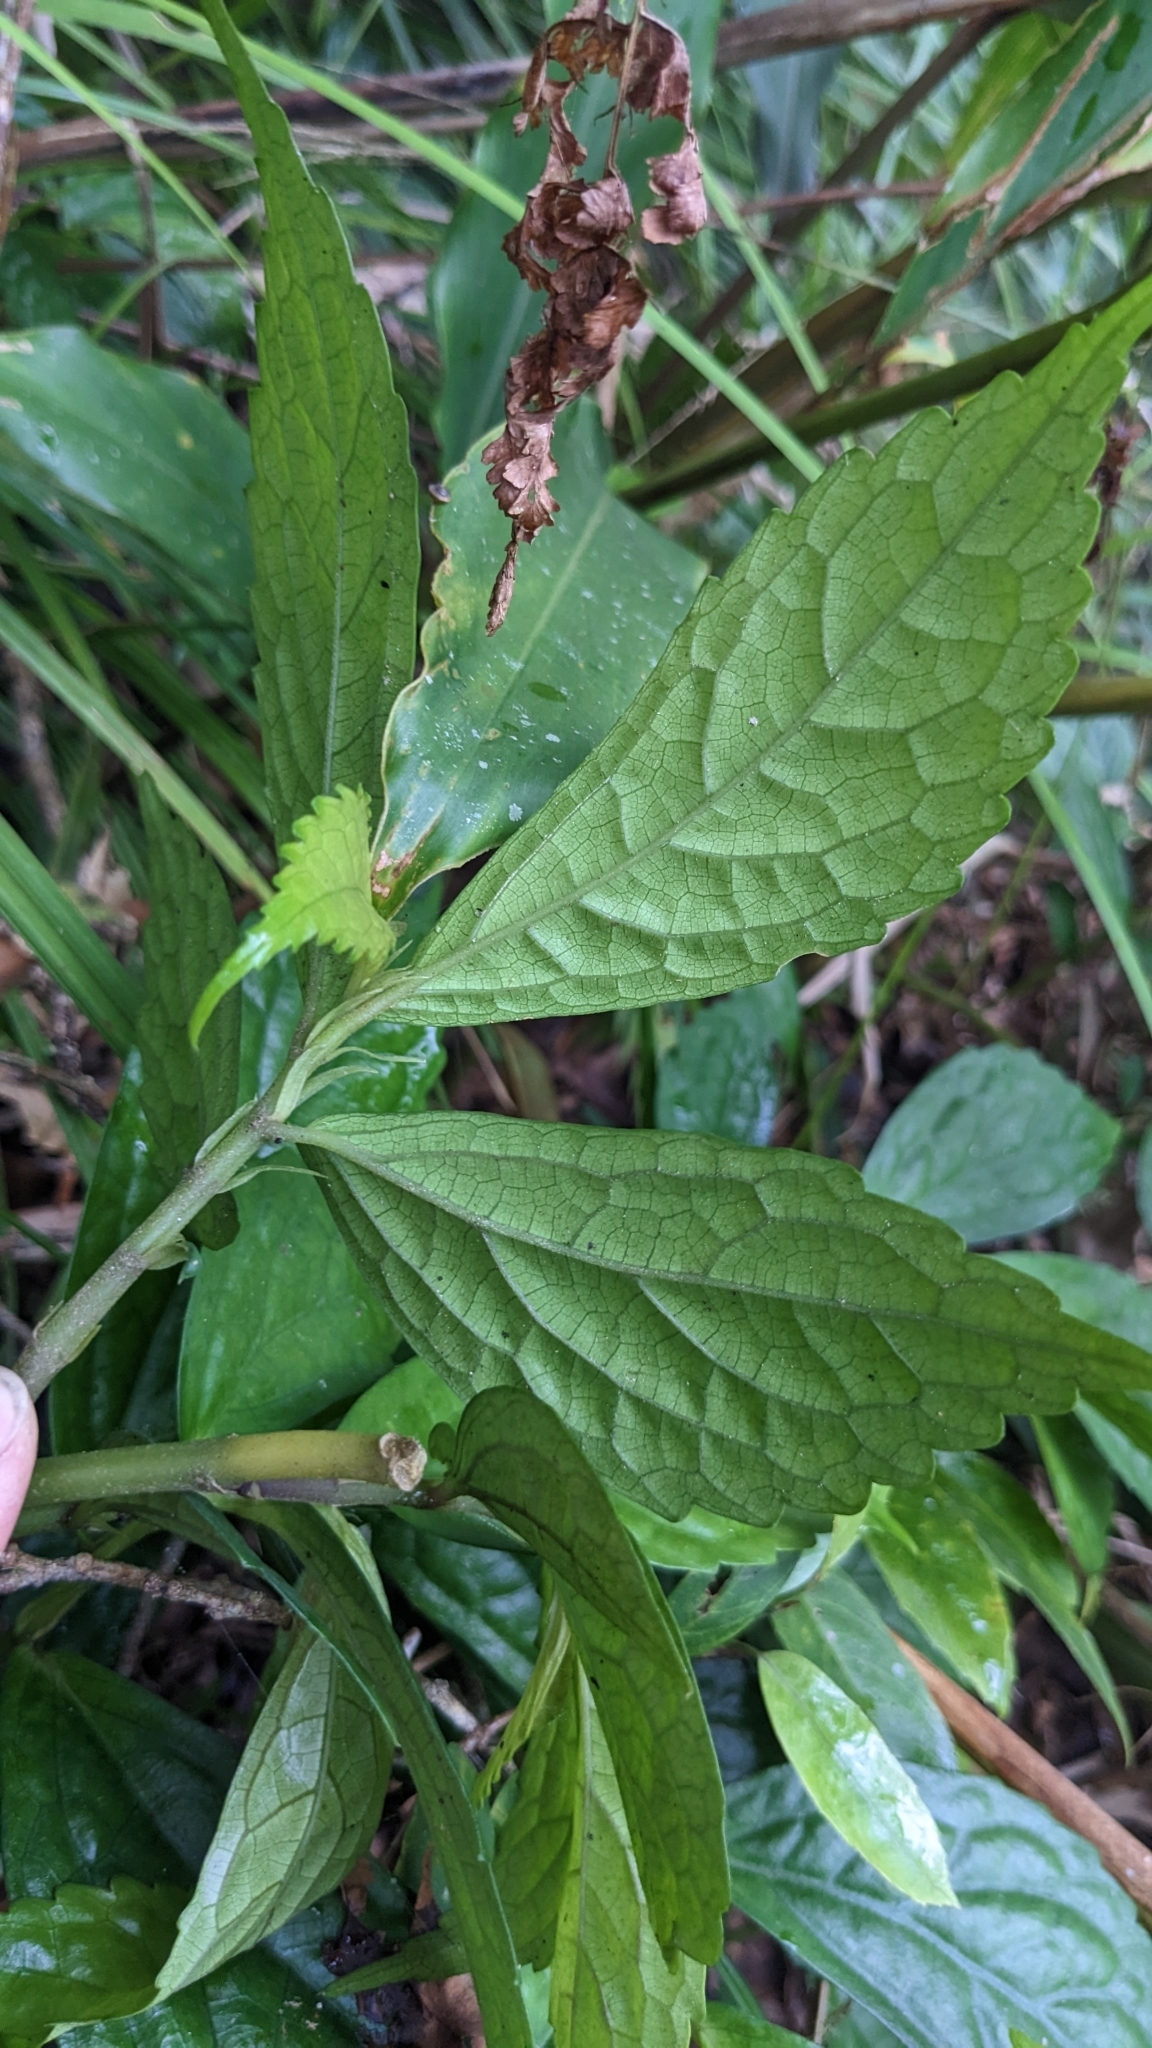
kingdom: Plantae
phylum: Tracheophyta
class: Magnoliopsida
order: Rosales
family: Urticaceae
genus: Elatostema
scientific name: Elatostema subcoriaceum
